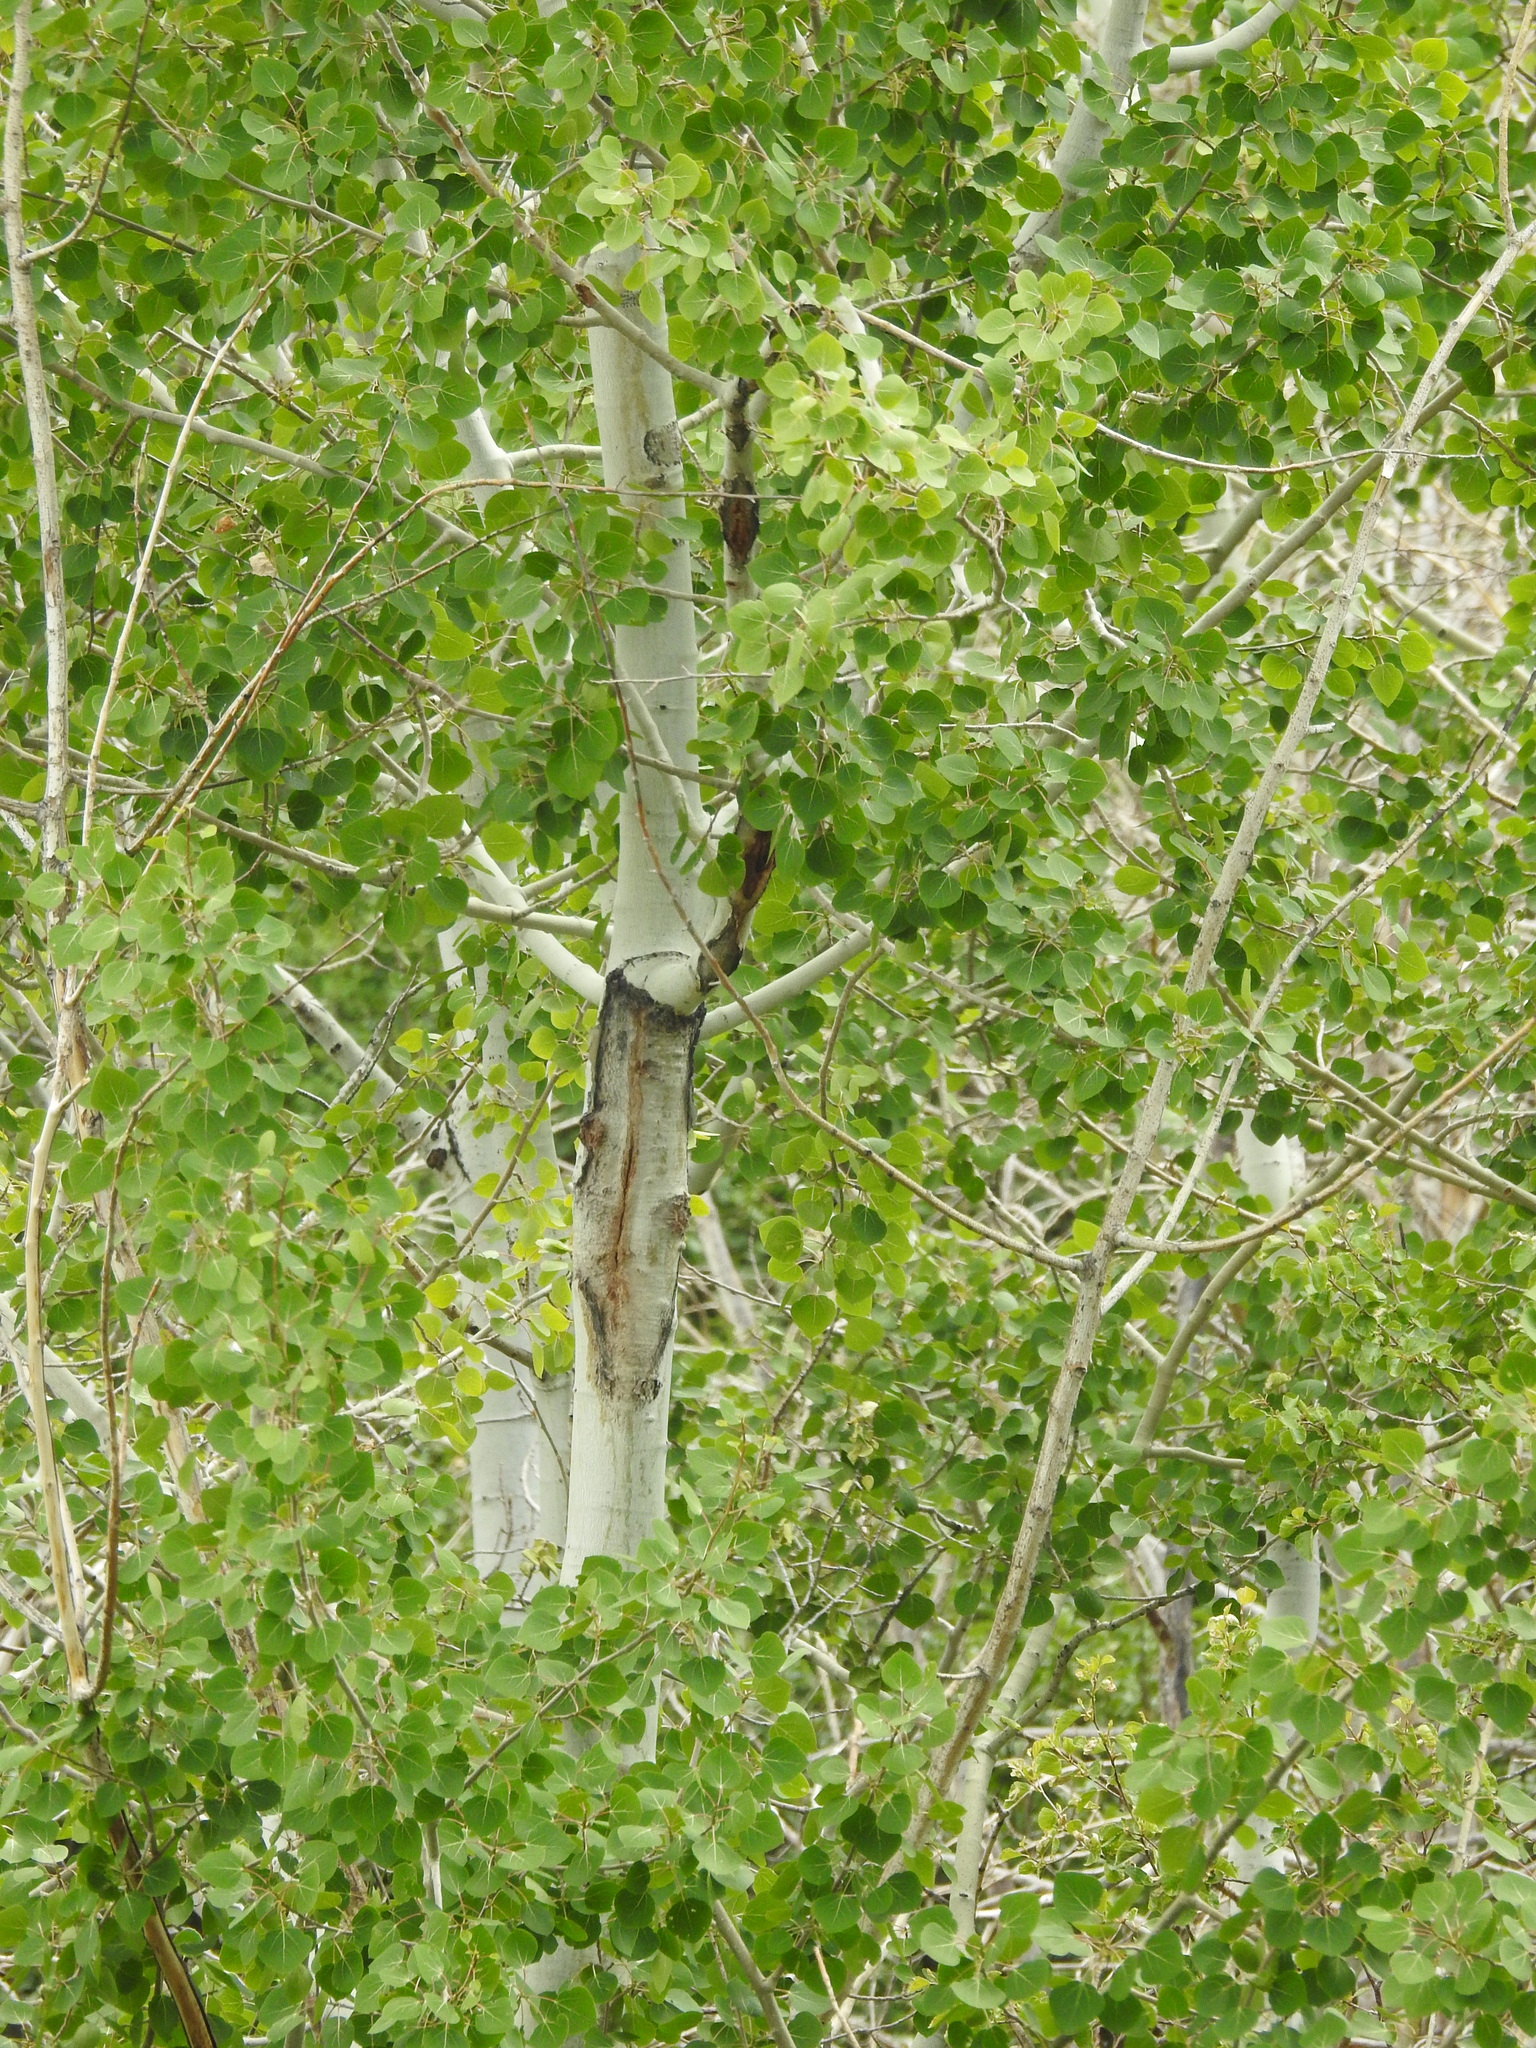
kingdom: Plantae
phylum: Tracheophyta
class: Magnoliopsida
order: Malpighiales
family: Salicaceae
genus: Populus
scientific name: Populus tremuloides
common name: Quaking aspen
